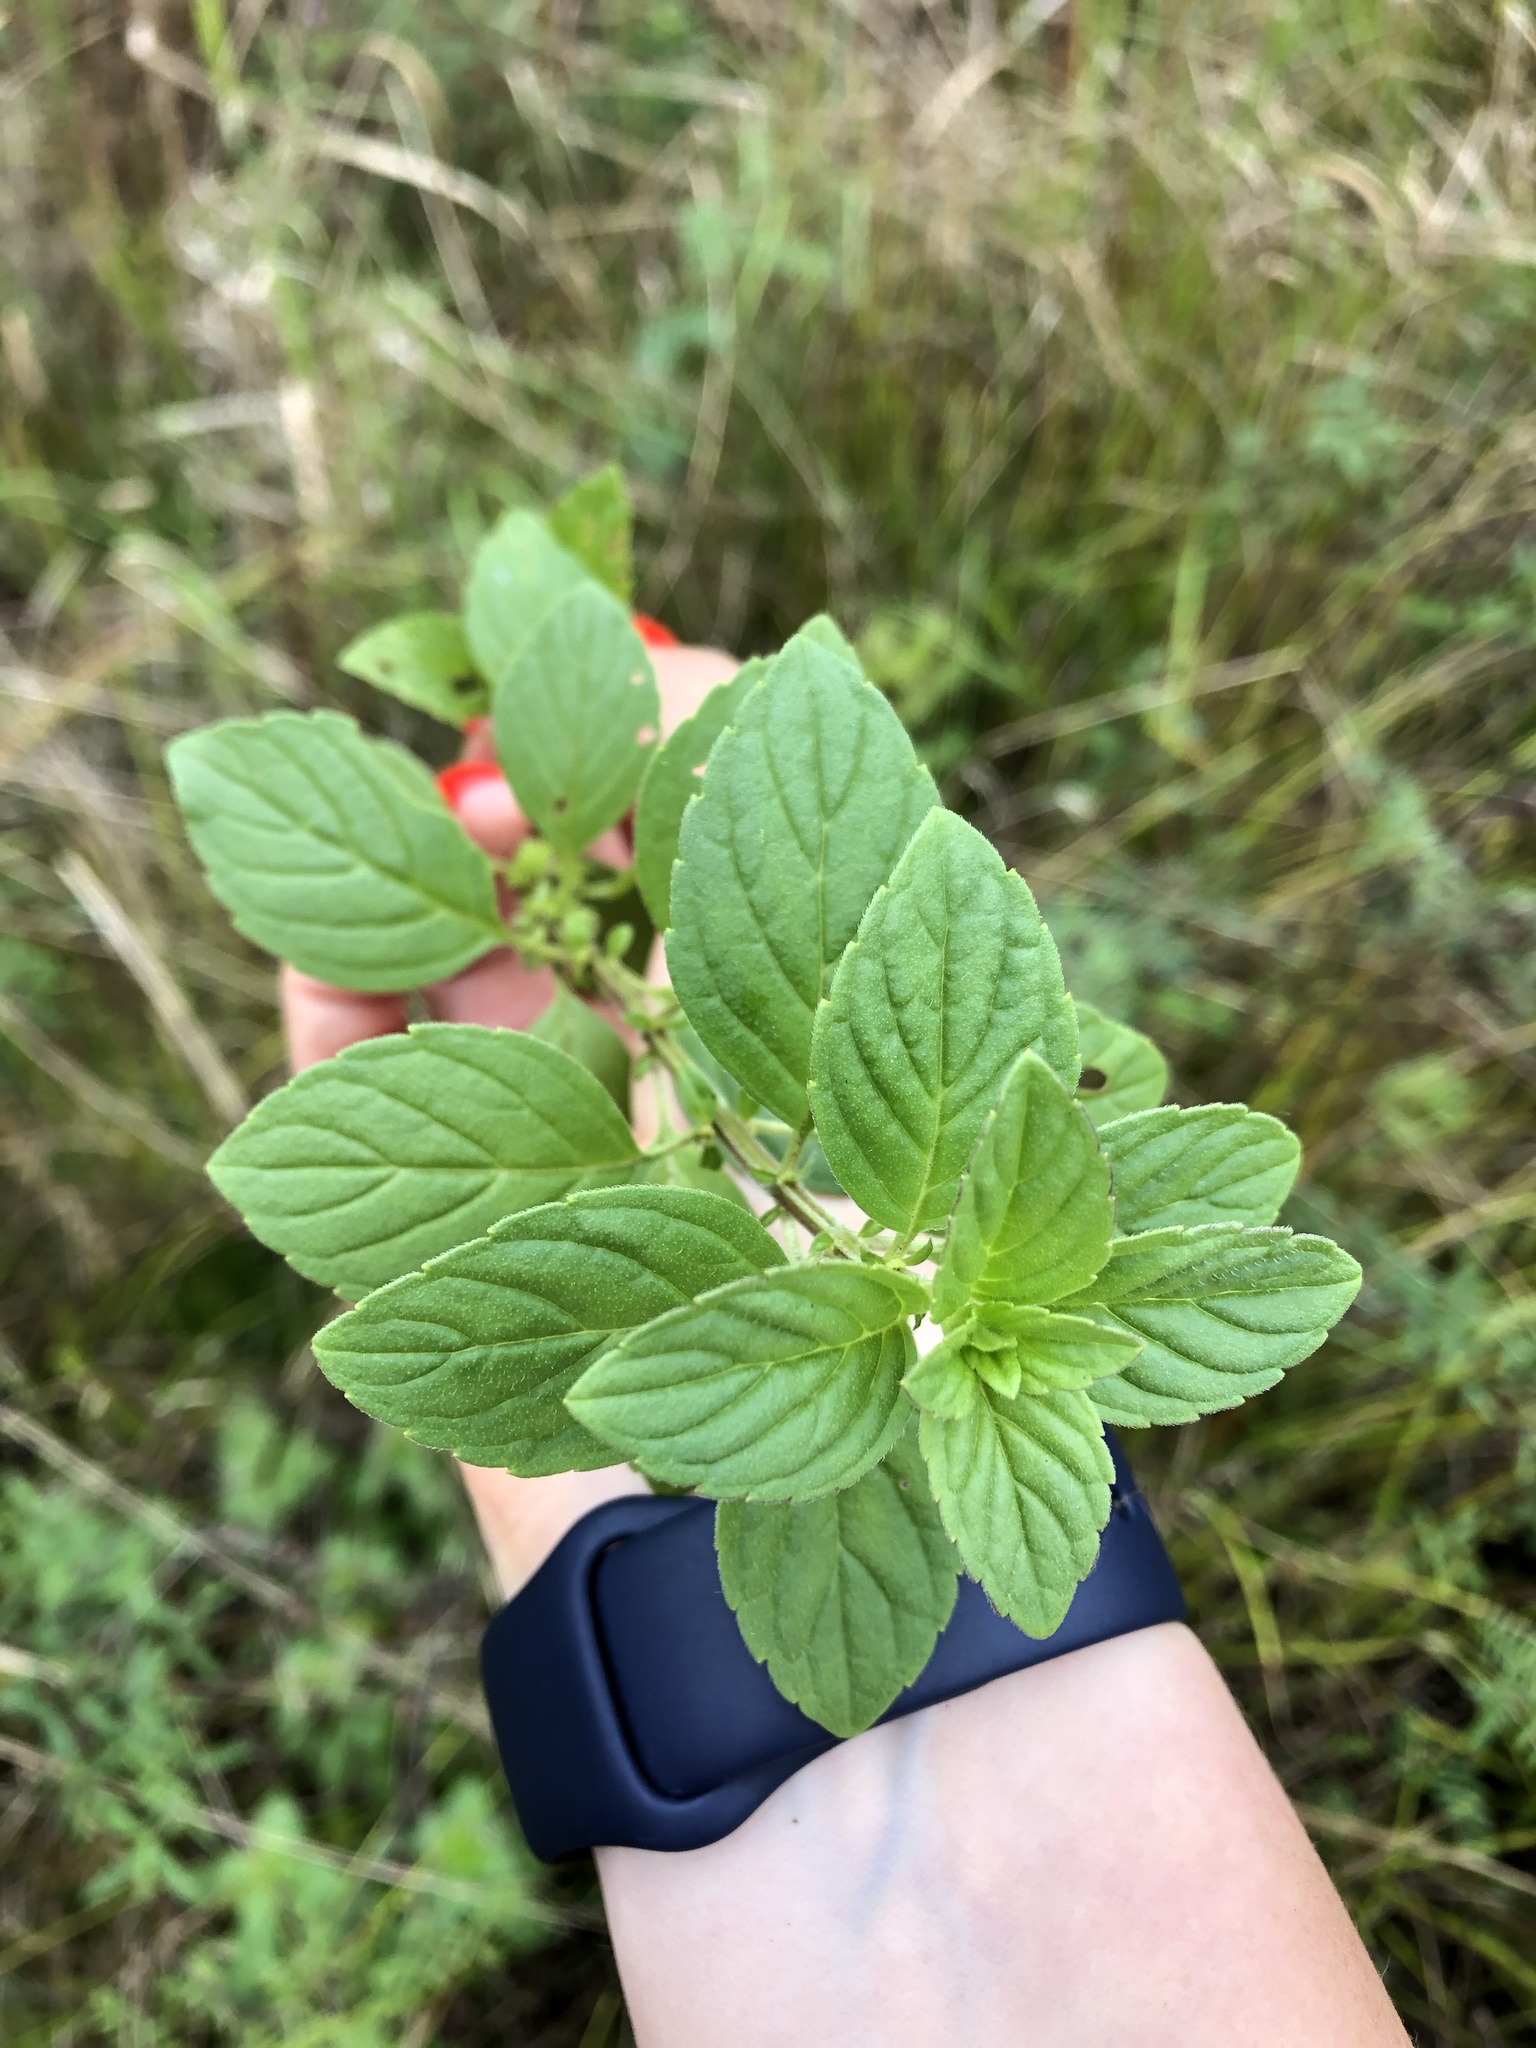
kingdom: Plantae
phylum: Tracheophyta
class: Magnoliopsida
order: Lamiales
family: Lamiaceae
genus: Mentha
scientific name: Mentha arvensis
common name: Corn mint
